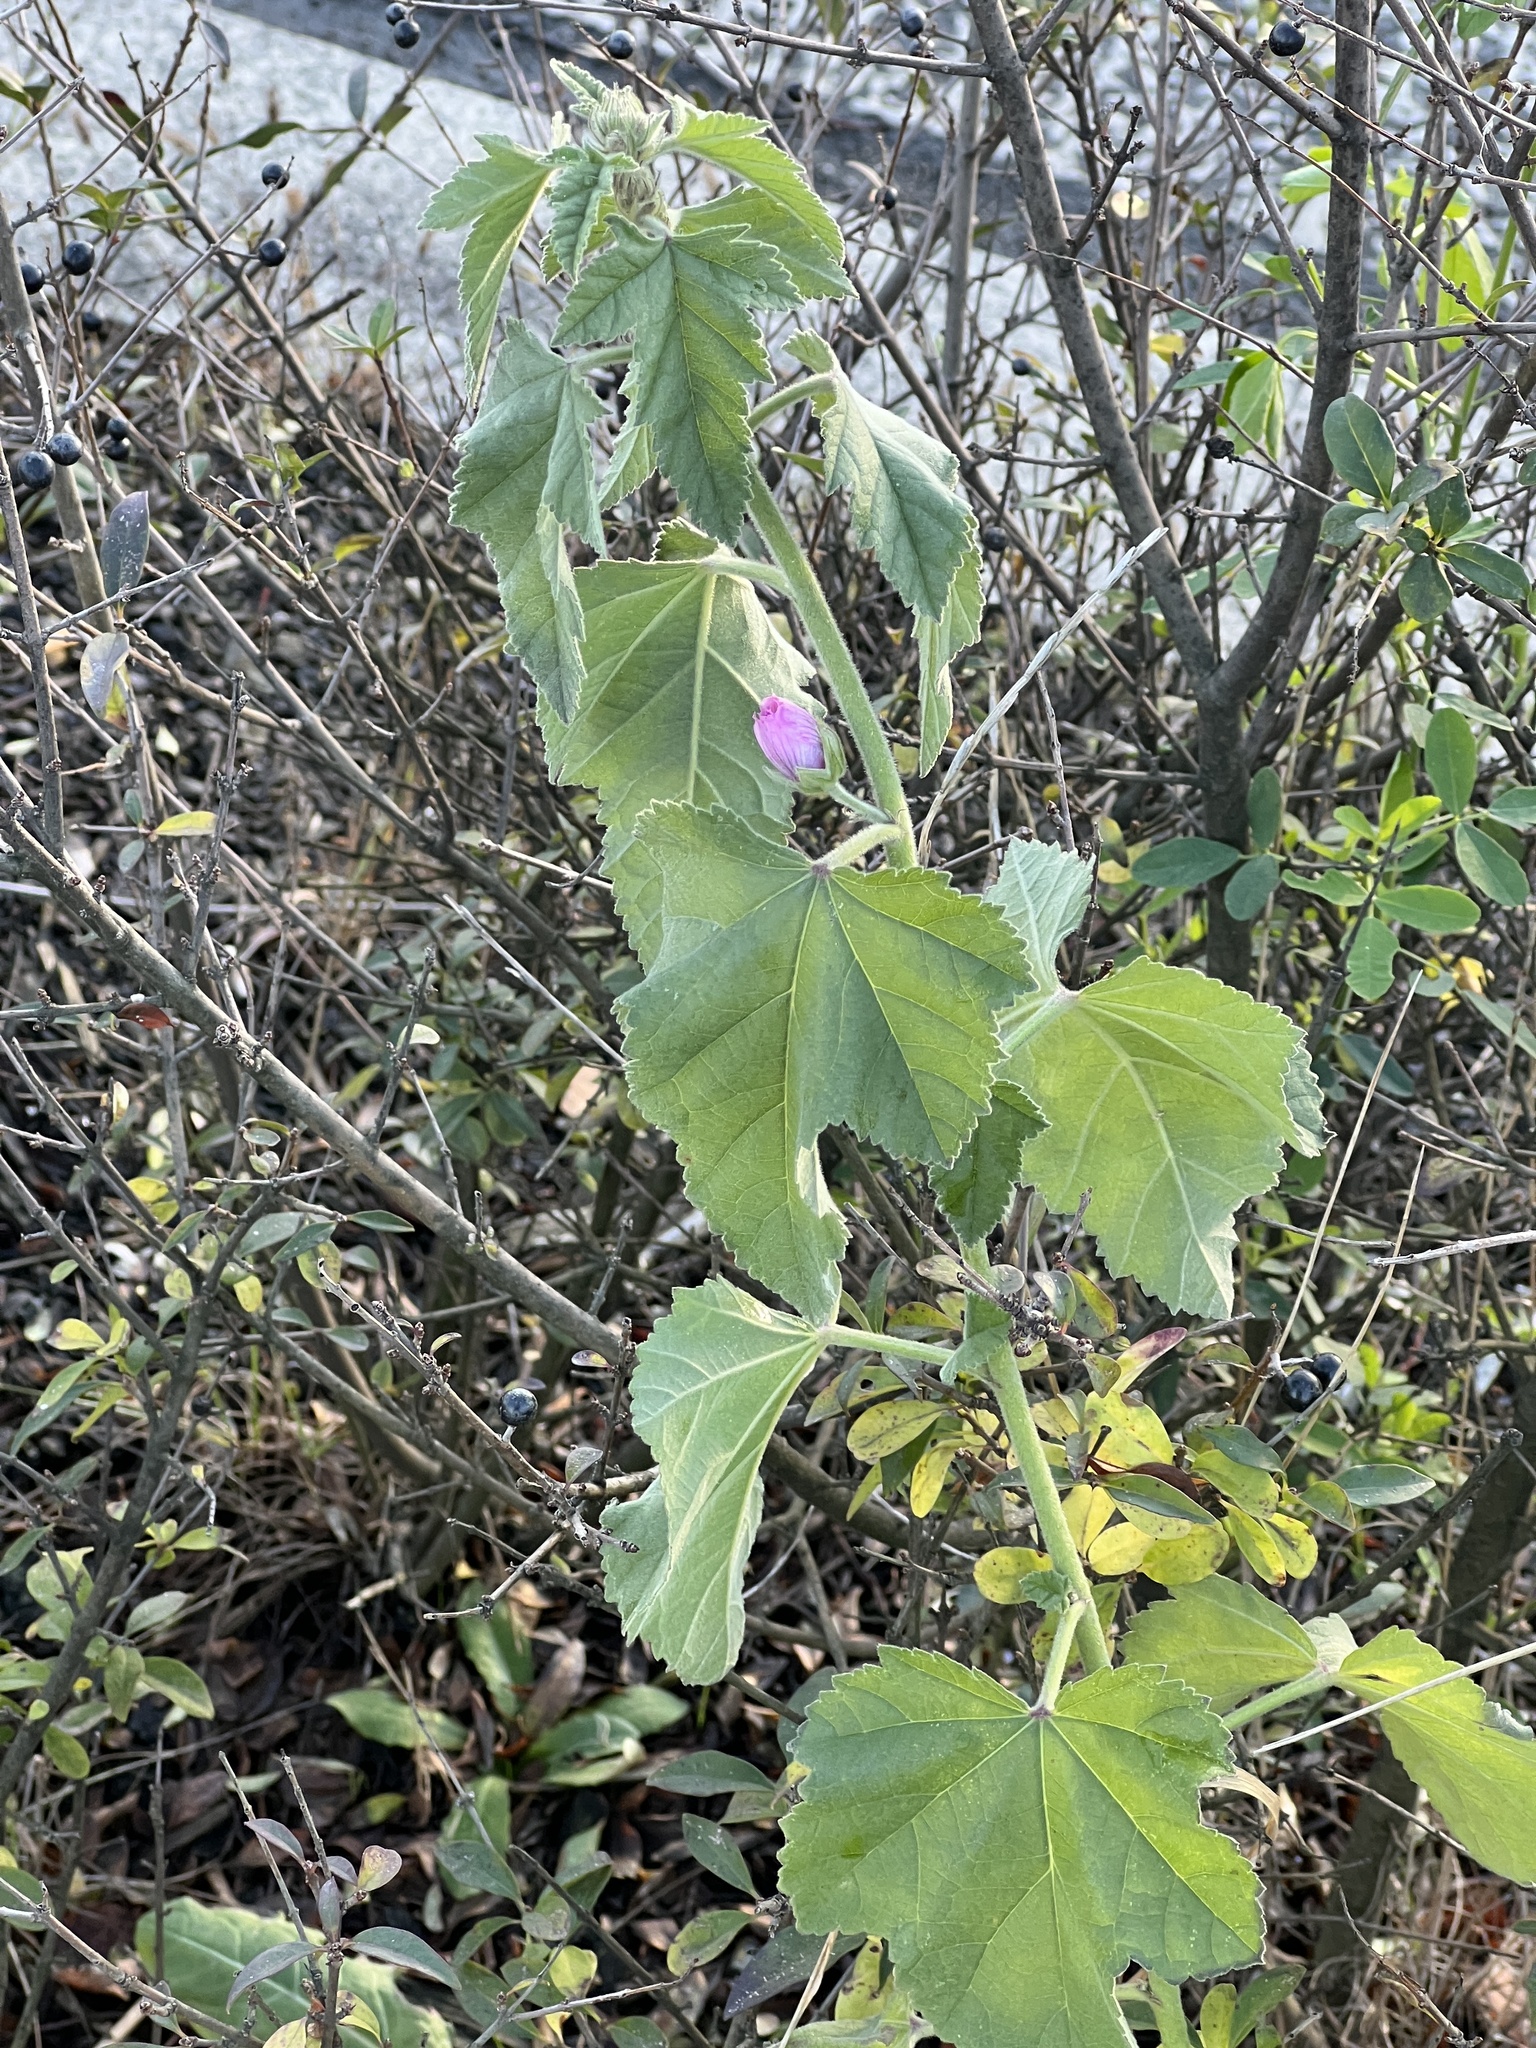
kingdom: Plantae
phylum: Tracheophyta
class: Magnoliopsida
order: Malvales
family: Malvaceae
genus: Althaea
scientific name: Althaea taurinensis
